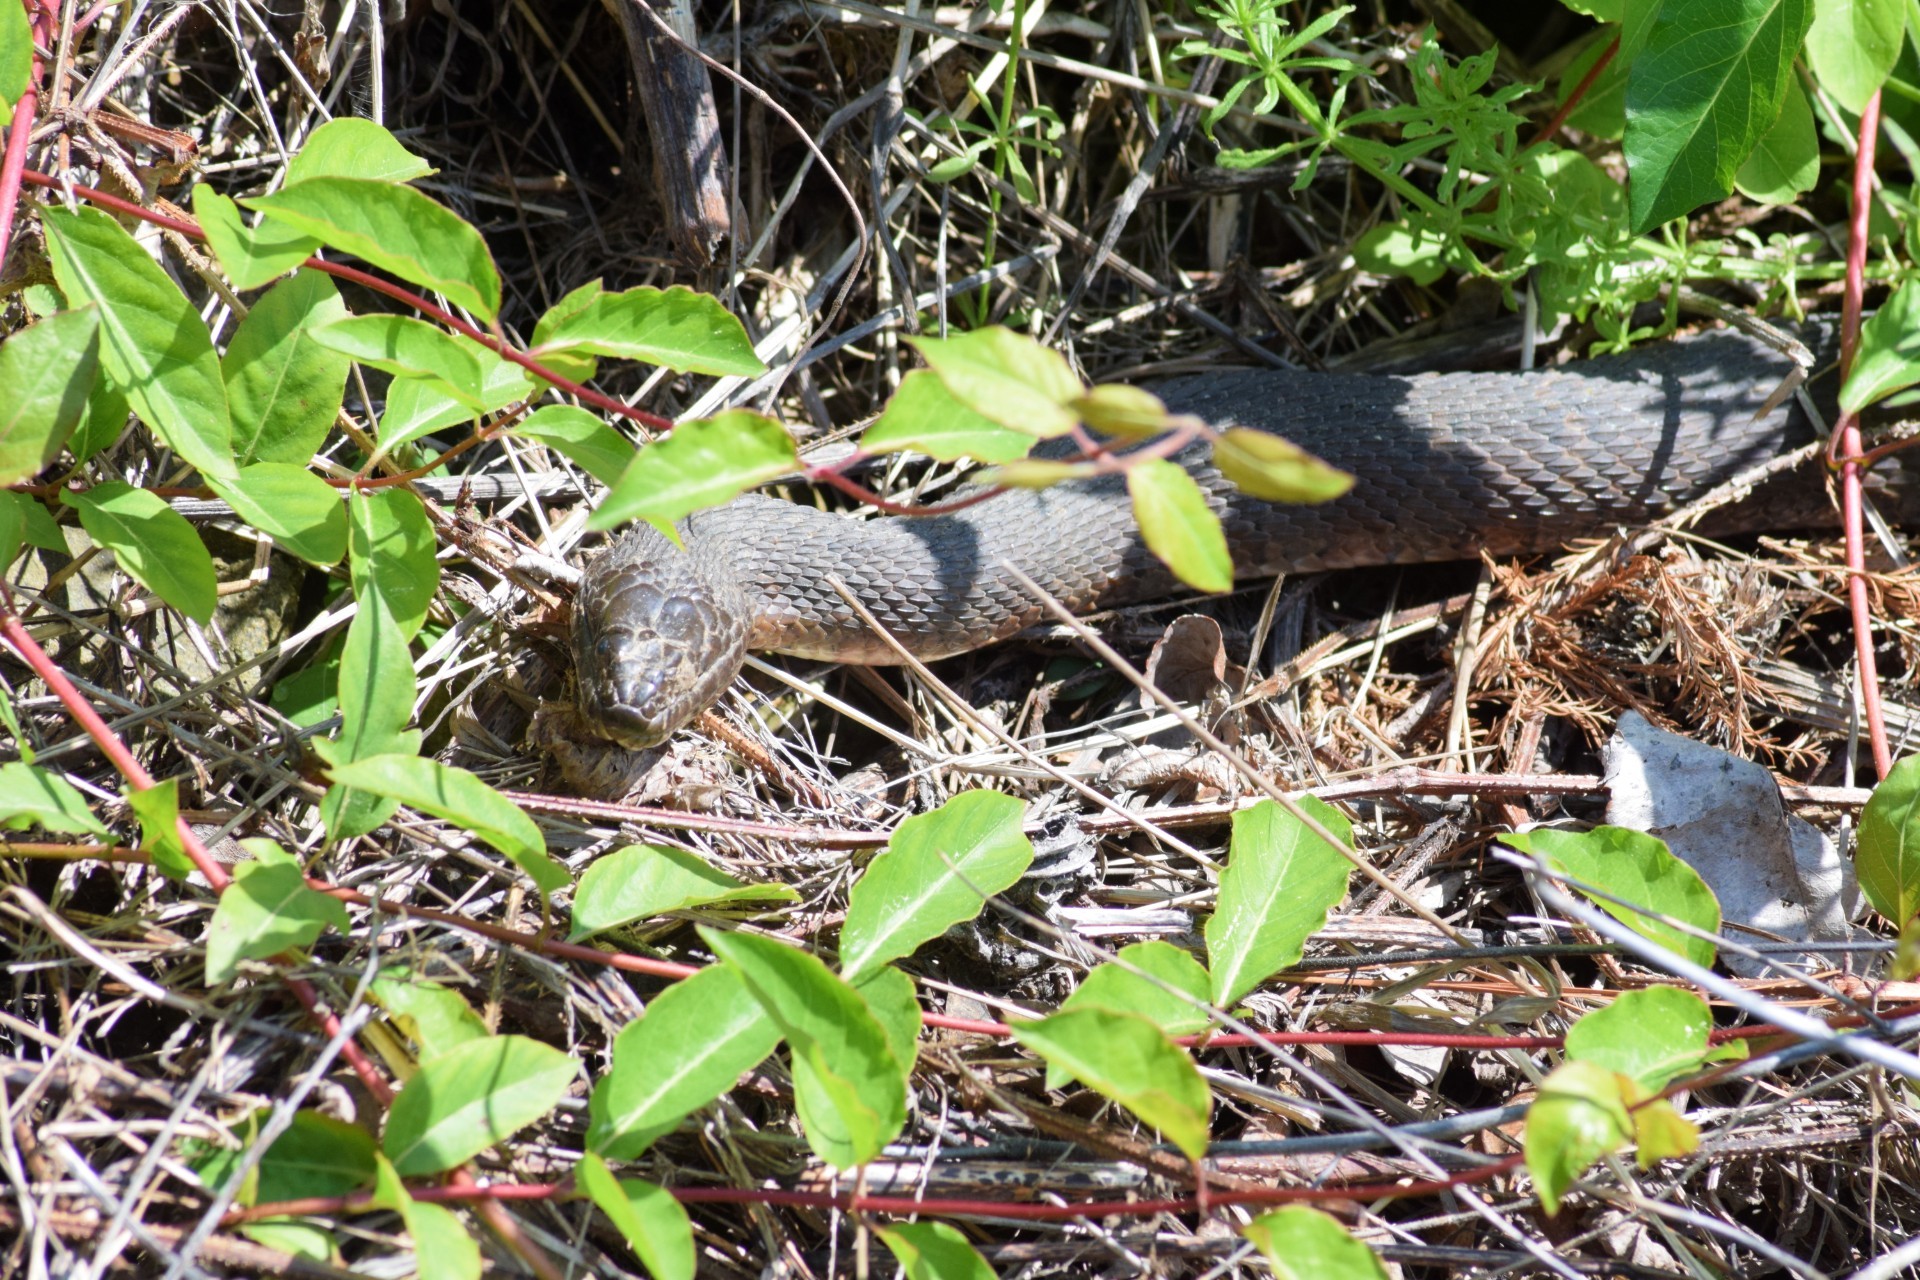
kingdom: Animalia
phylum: Chordata
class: Squamata
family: Colubridae
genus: Nerodia
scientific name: Nerodia sipedon
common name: Northern water snake
